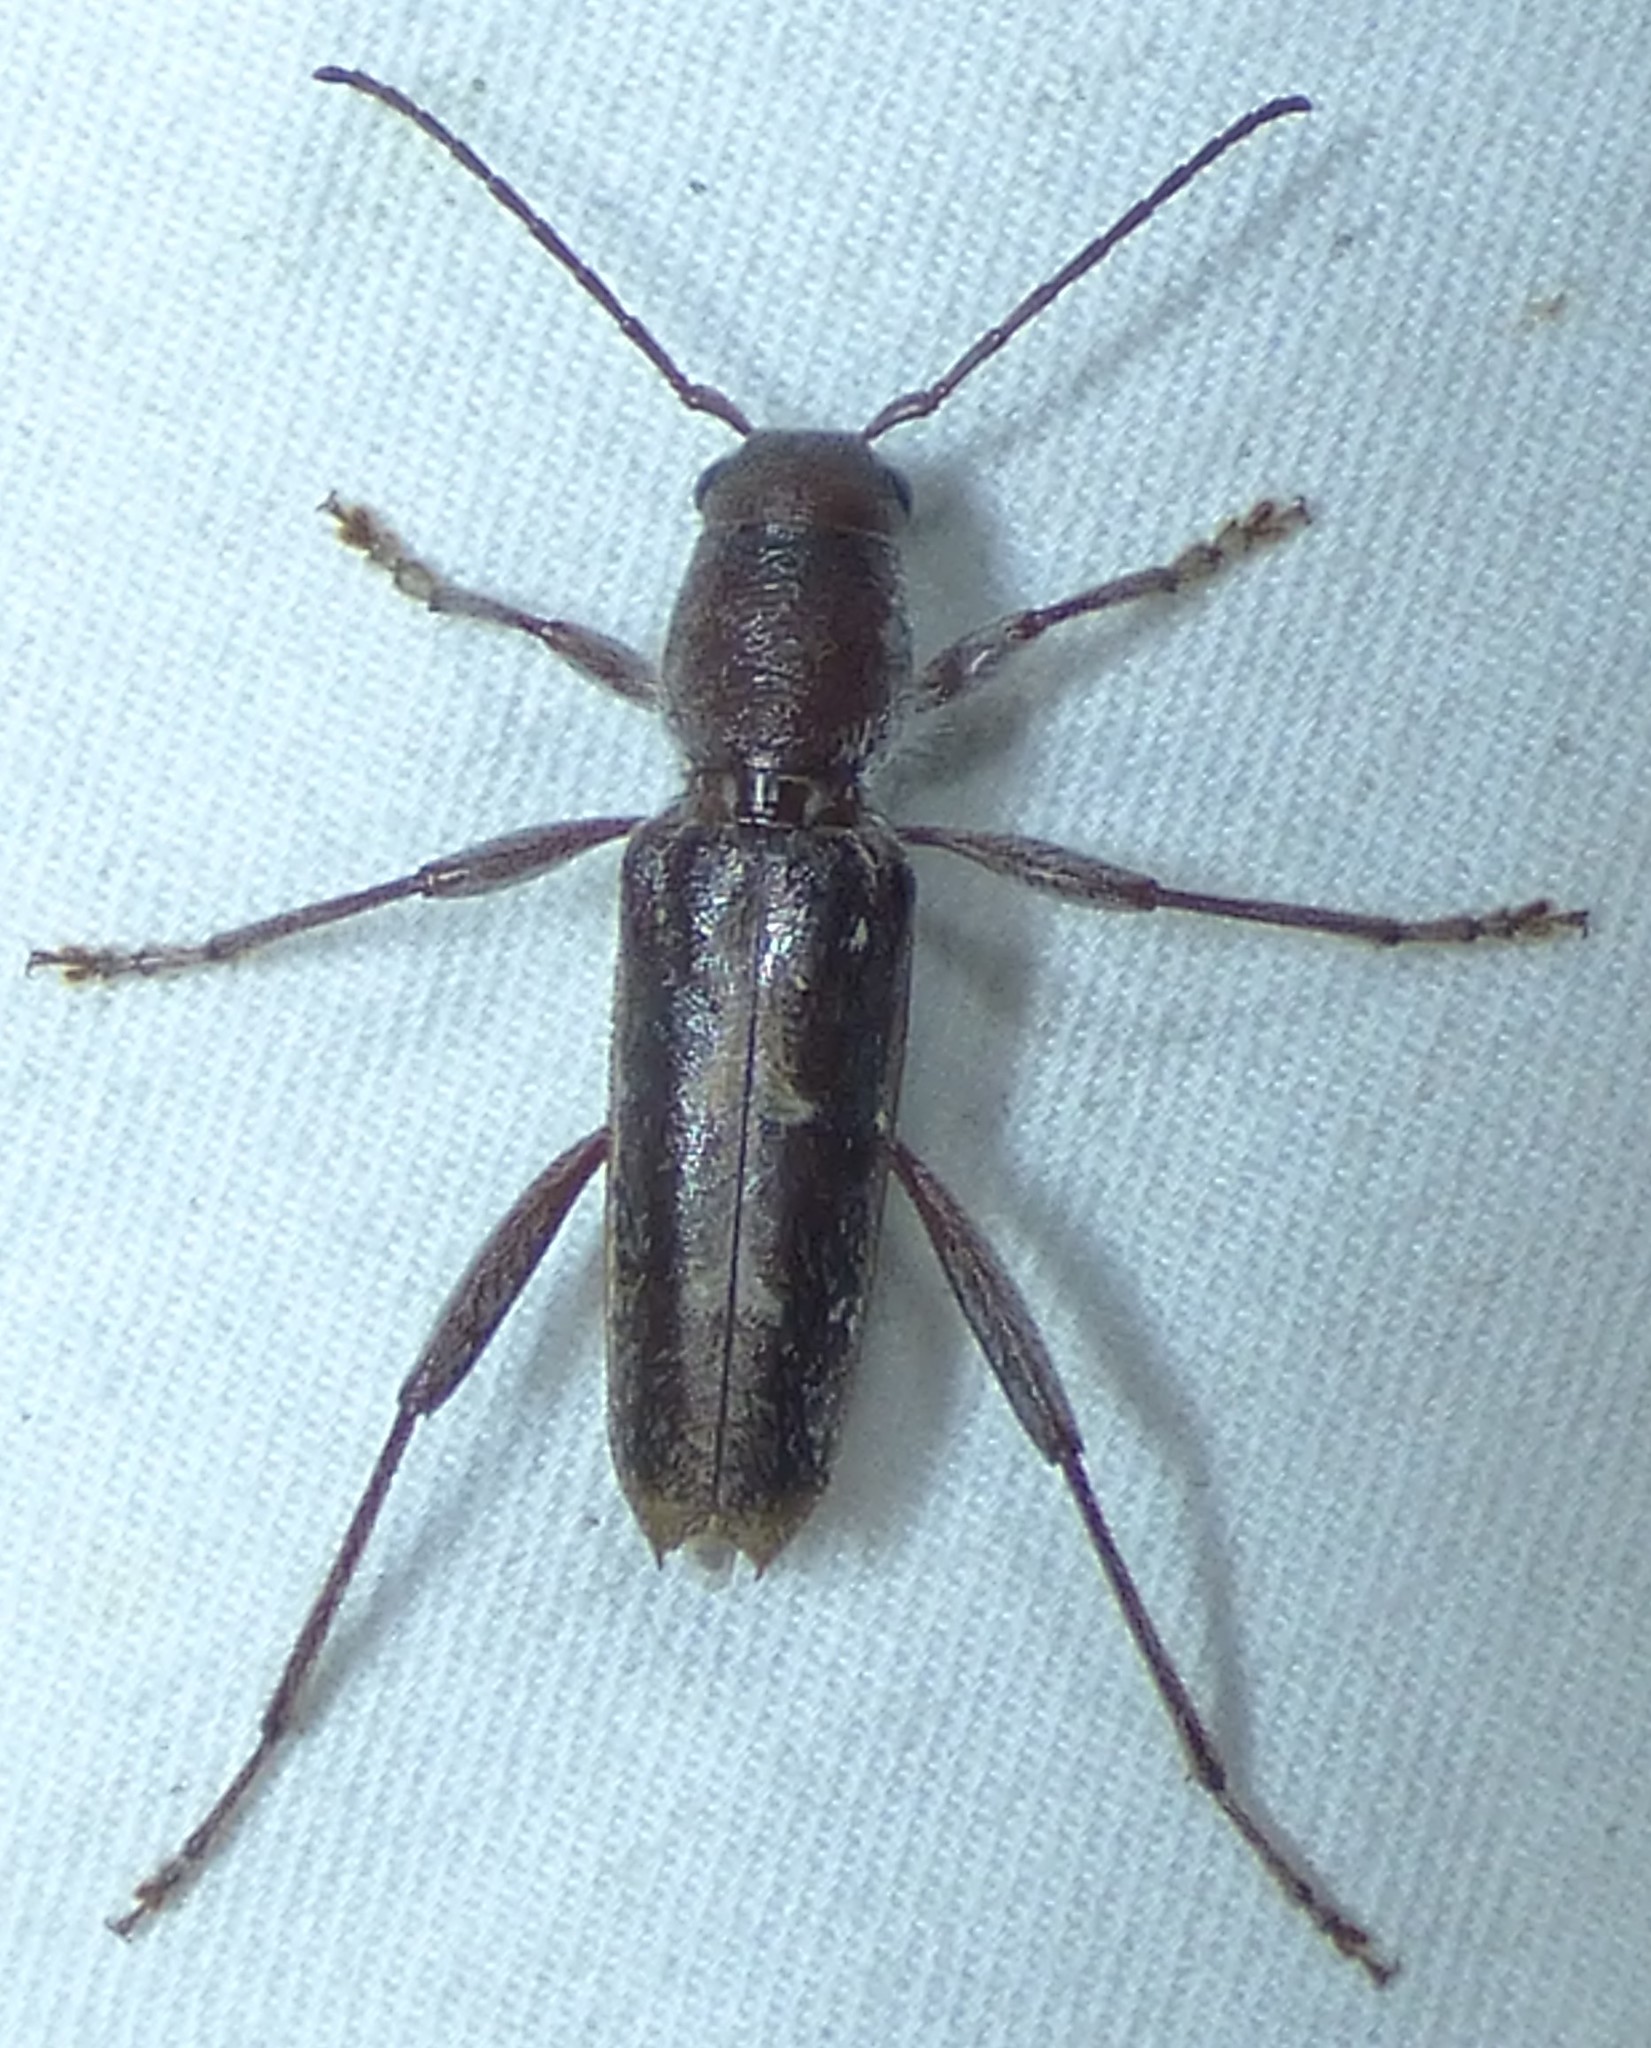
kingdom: Animalia
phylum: Arthropoda
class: Insecta
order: Coleoptera
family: Cerambycidae
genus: Xylotrechus
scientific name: Xylotrechus sagittatus
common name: Arrowhead borer
